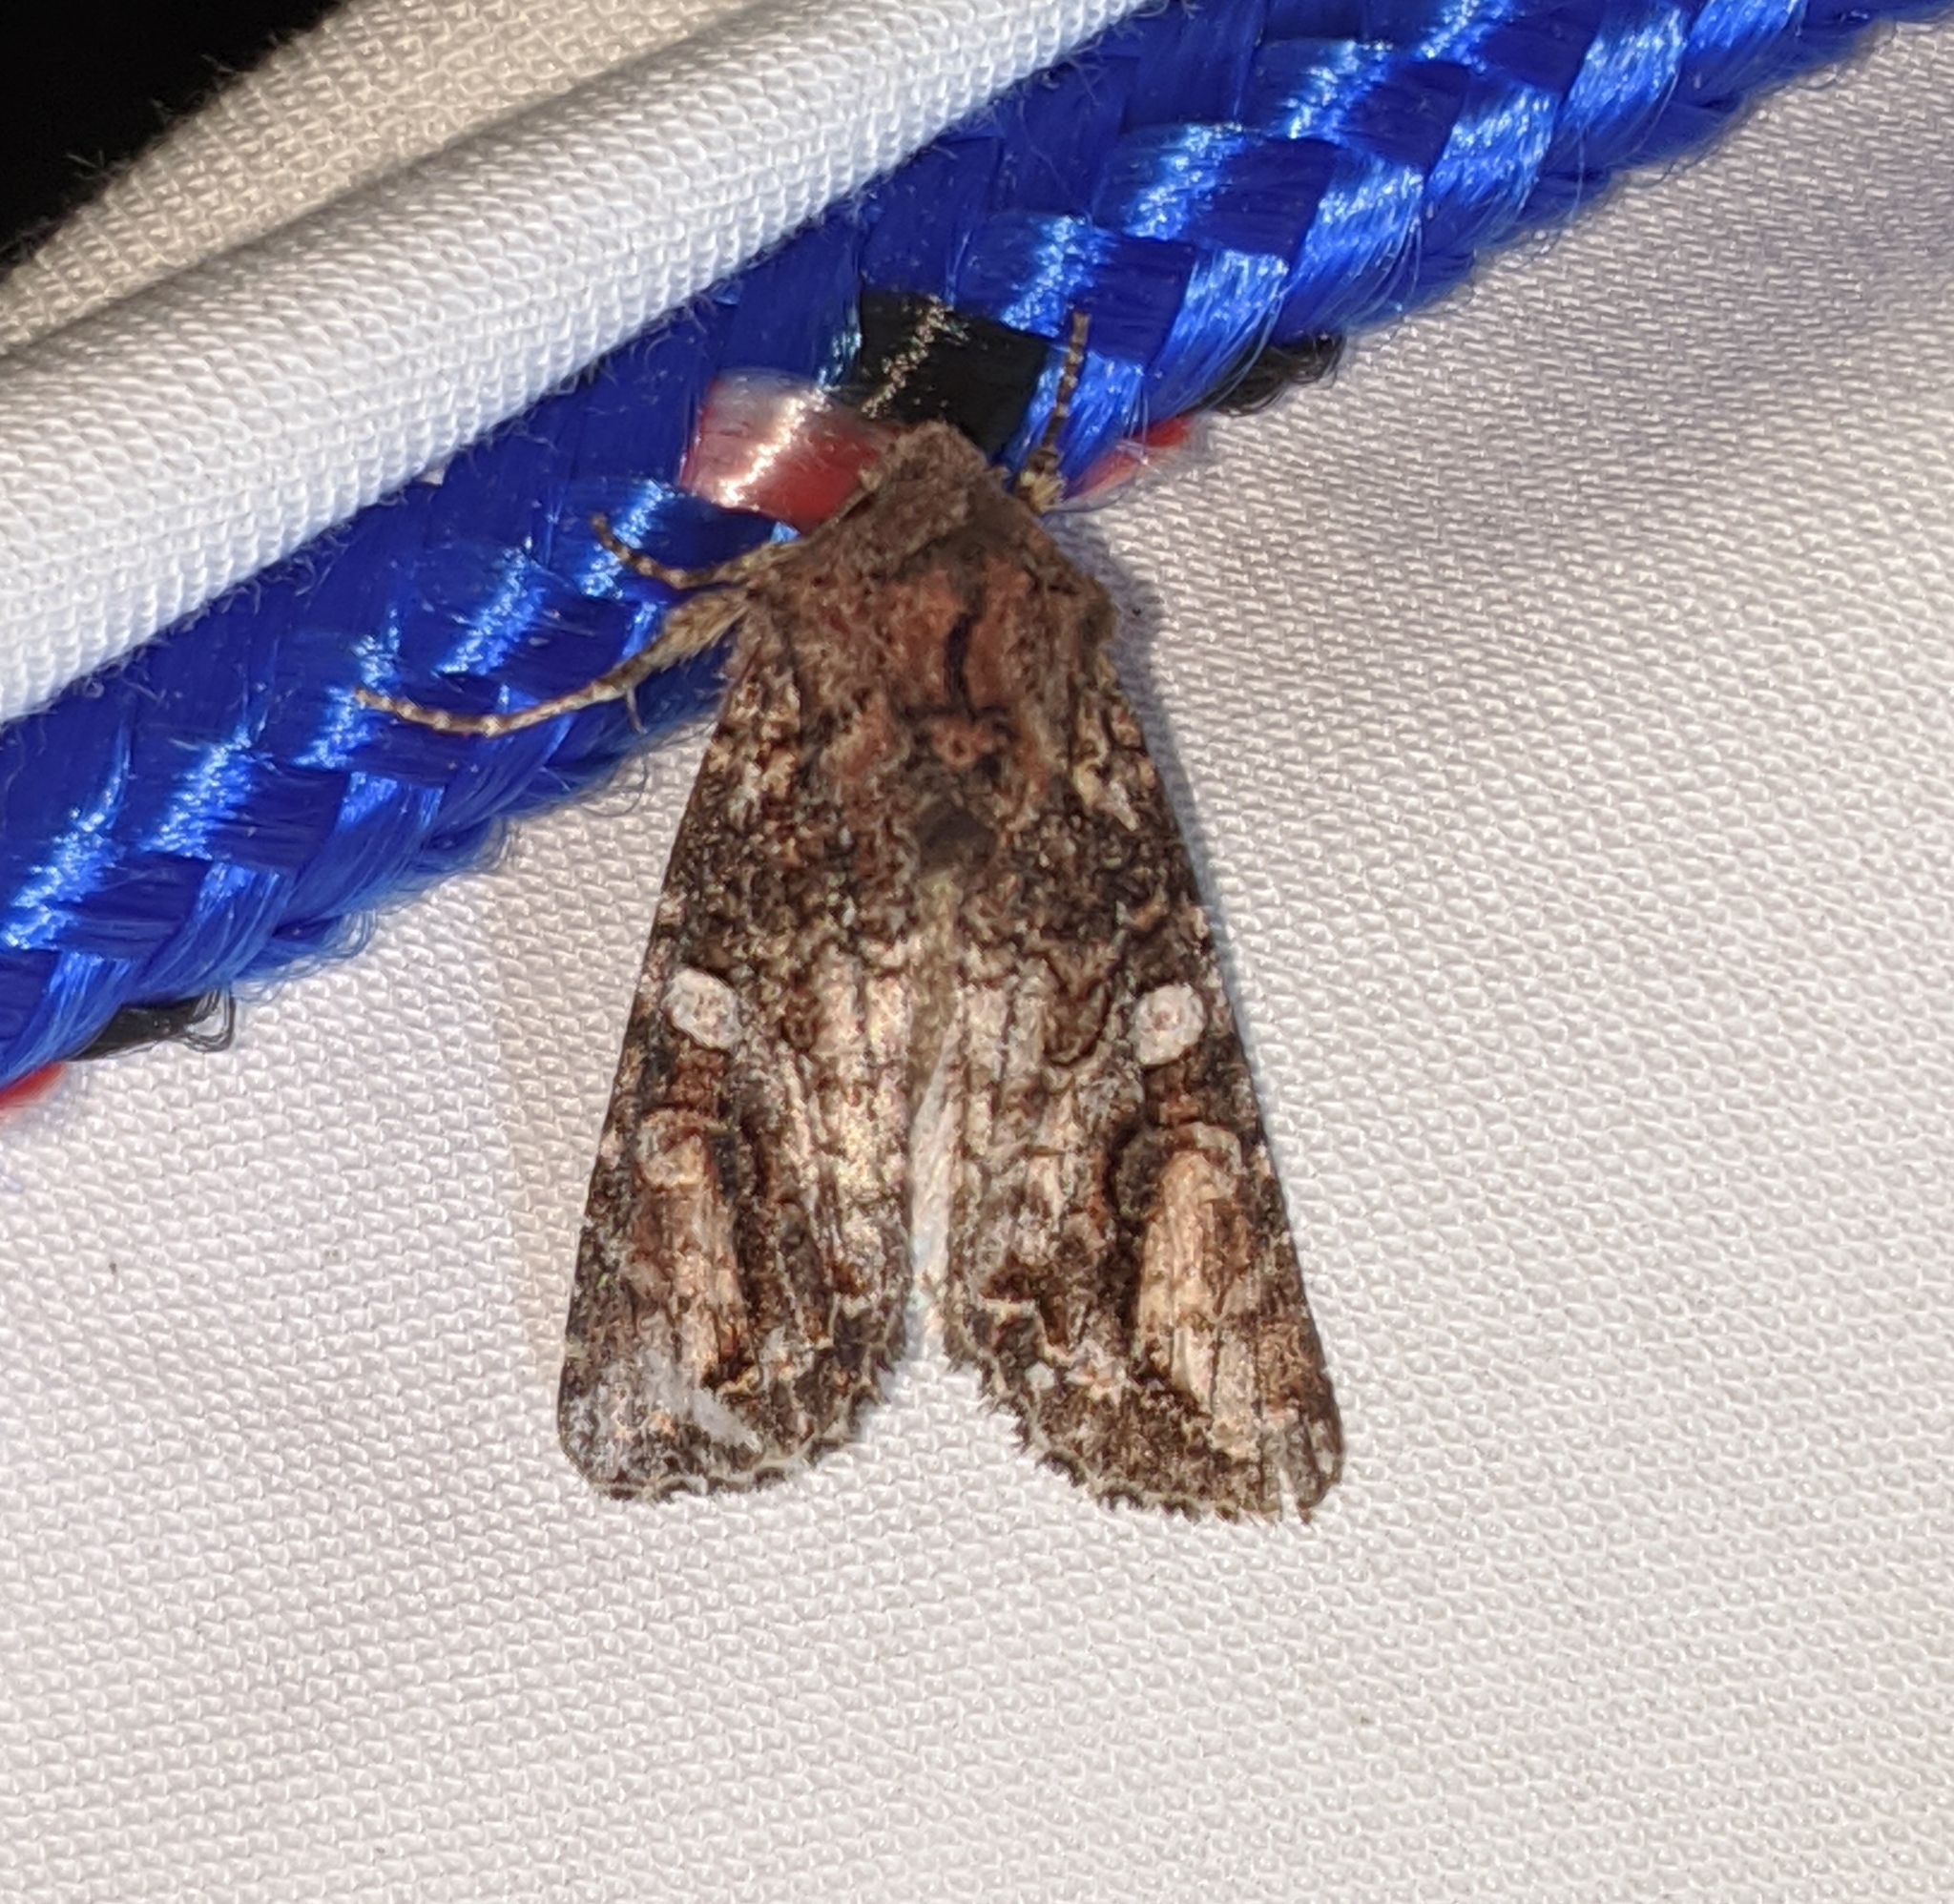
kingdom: Animalia
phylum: Arthropoda
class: Insecta
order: Lepidoptera
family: Noctuidae
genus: Egira
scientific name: Egira perlubens
